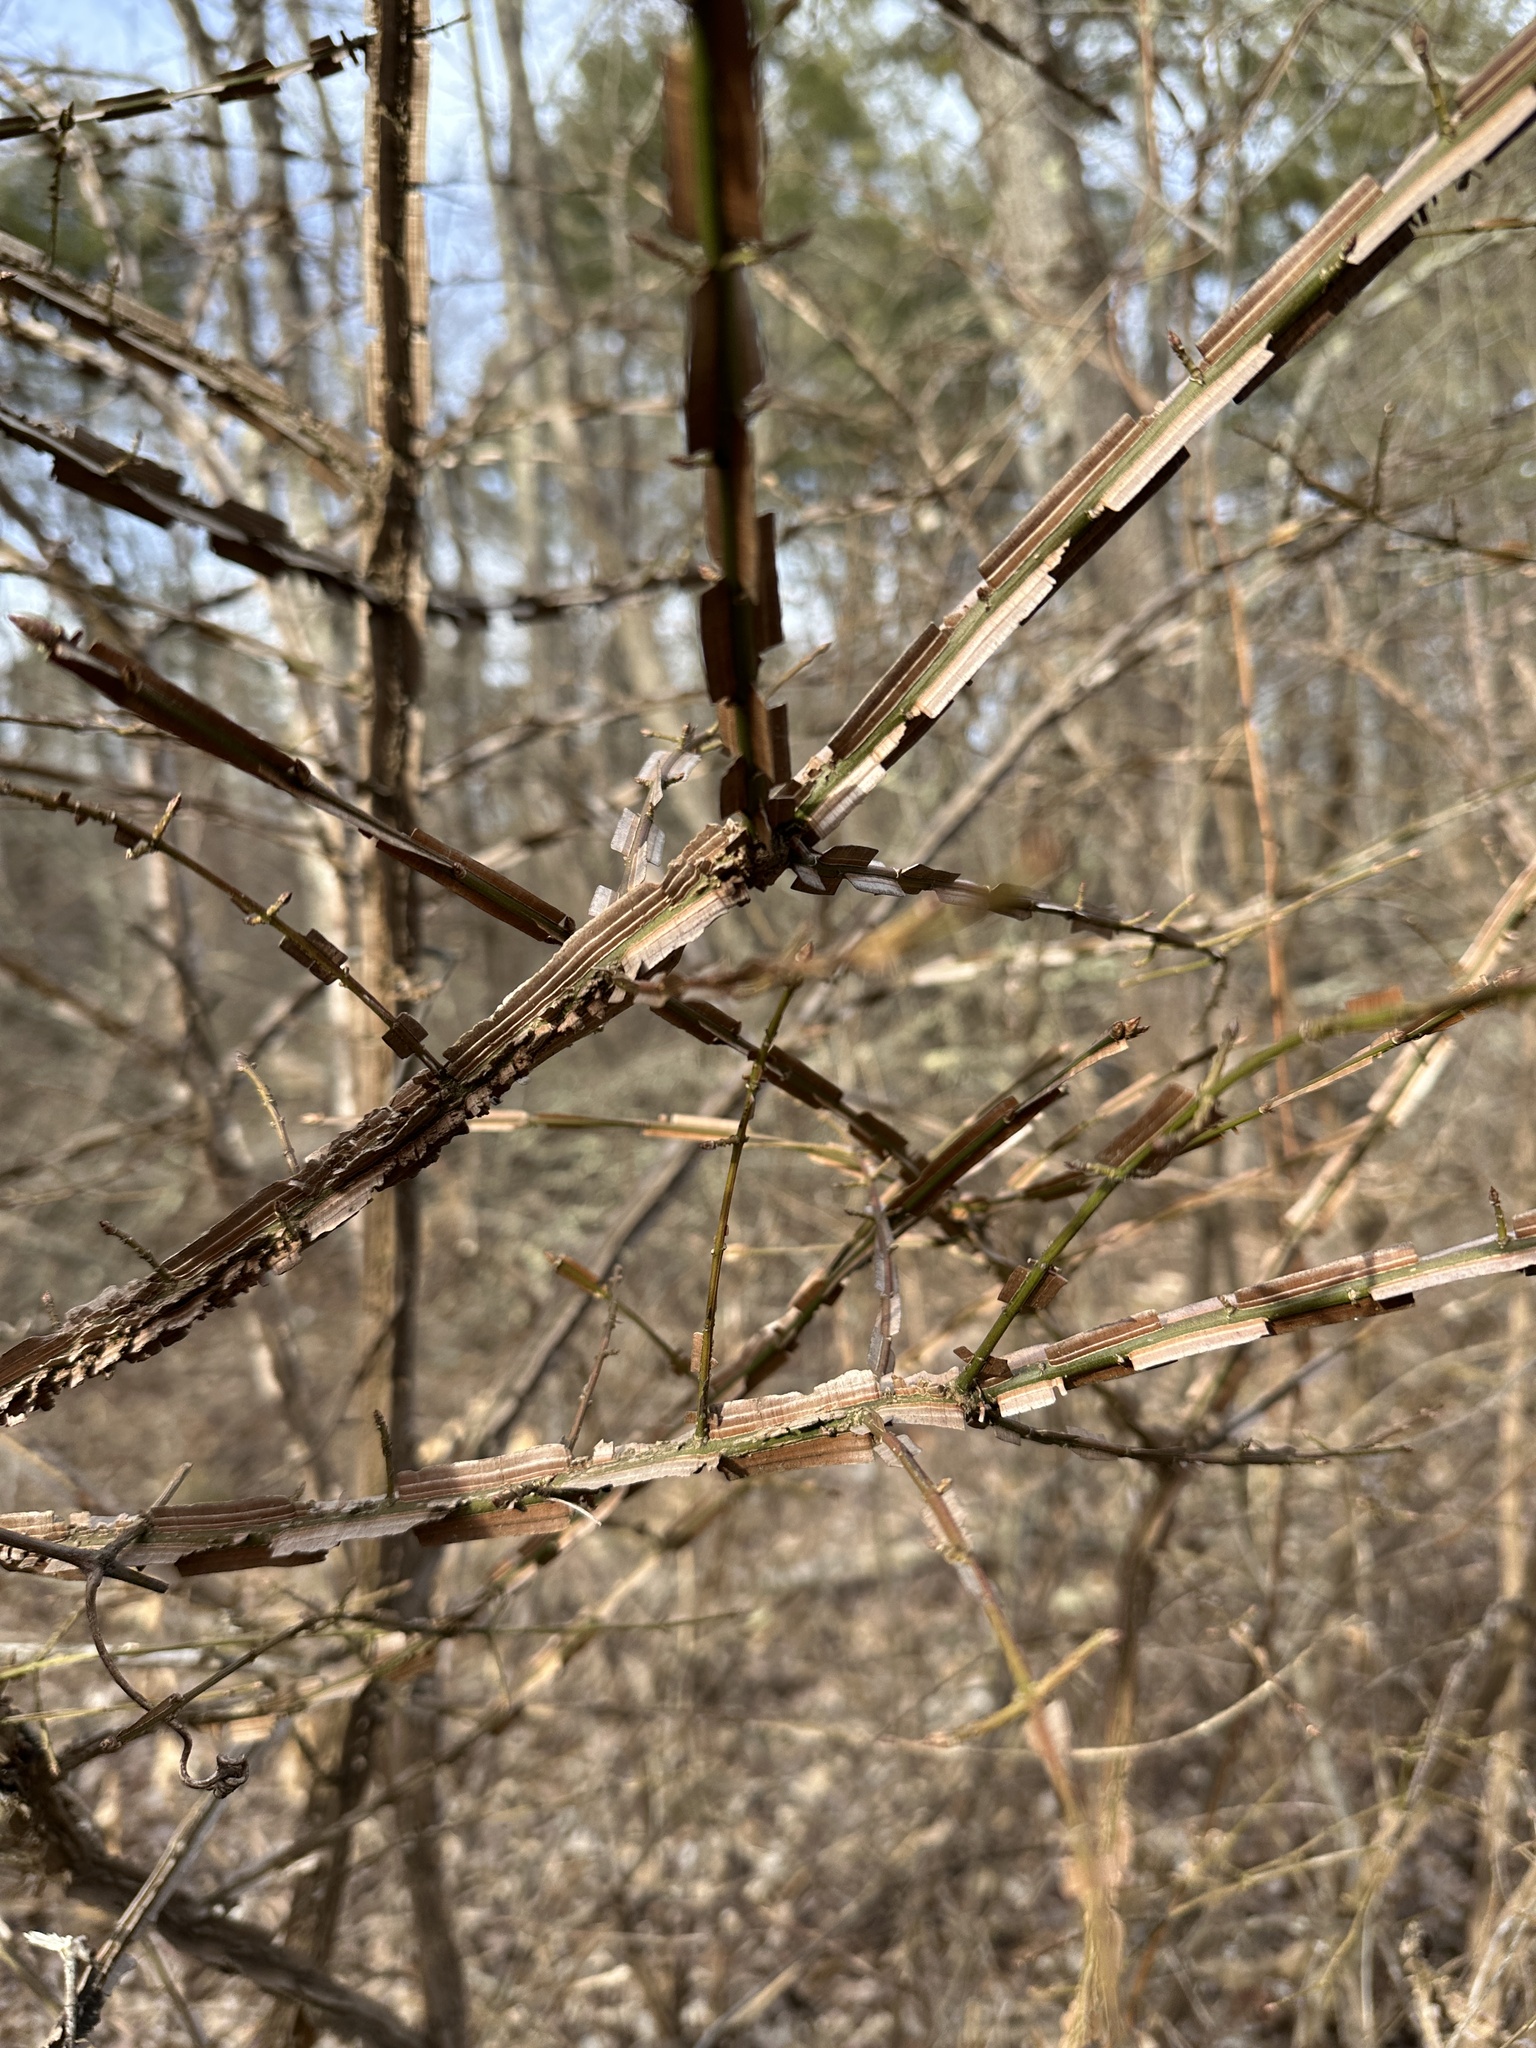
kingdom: Plantae
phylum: Tracheophyta
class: Magnoliopsida
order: Celastrales
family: Celastraceae
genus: Euonymus
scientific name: Euonymus alatus
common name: Winged euonymus
